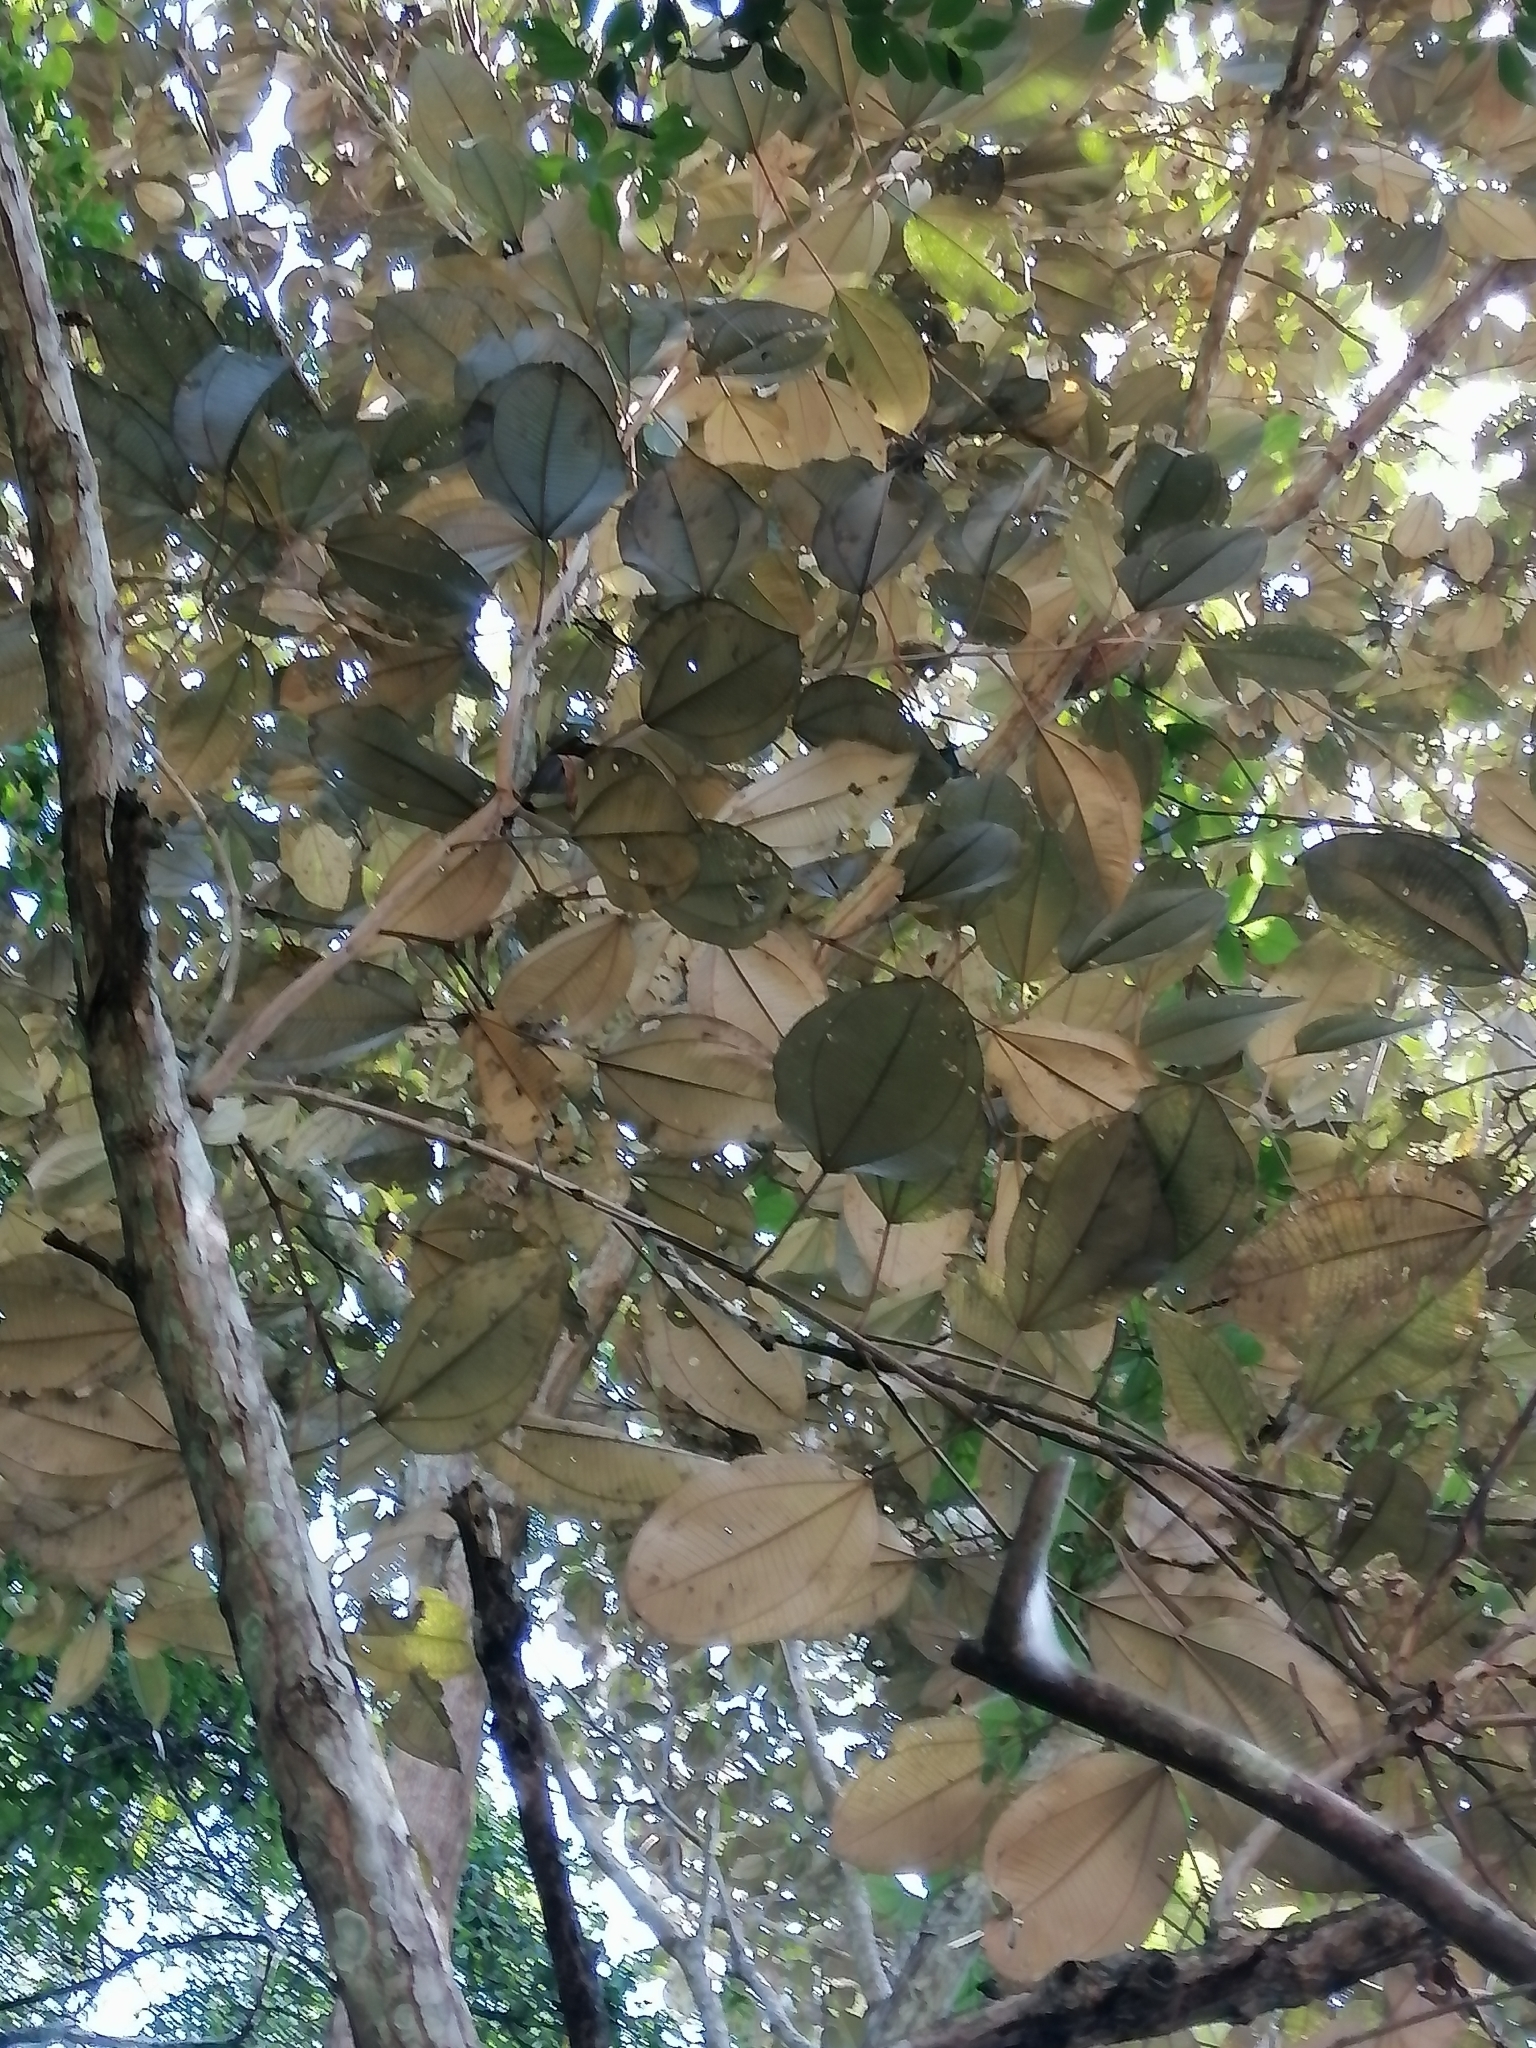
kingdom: Plantae
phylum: Tracheophyta
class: Magnoliopsida
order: Myrtales
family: Melastomataceae
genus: Miconia
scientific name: Miconia argentea
